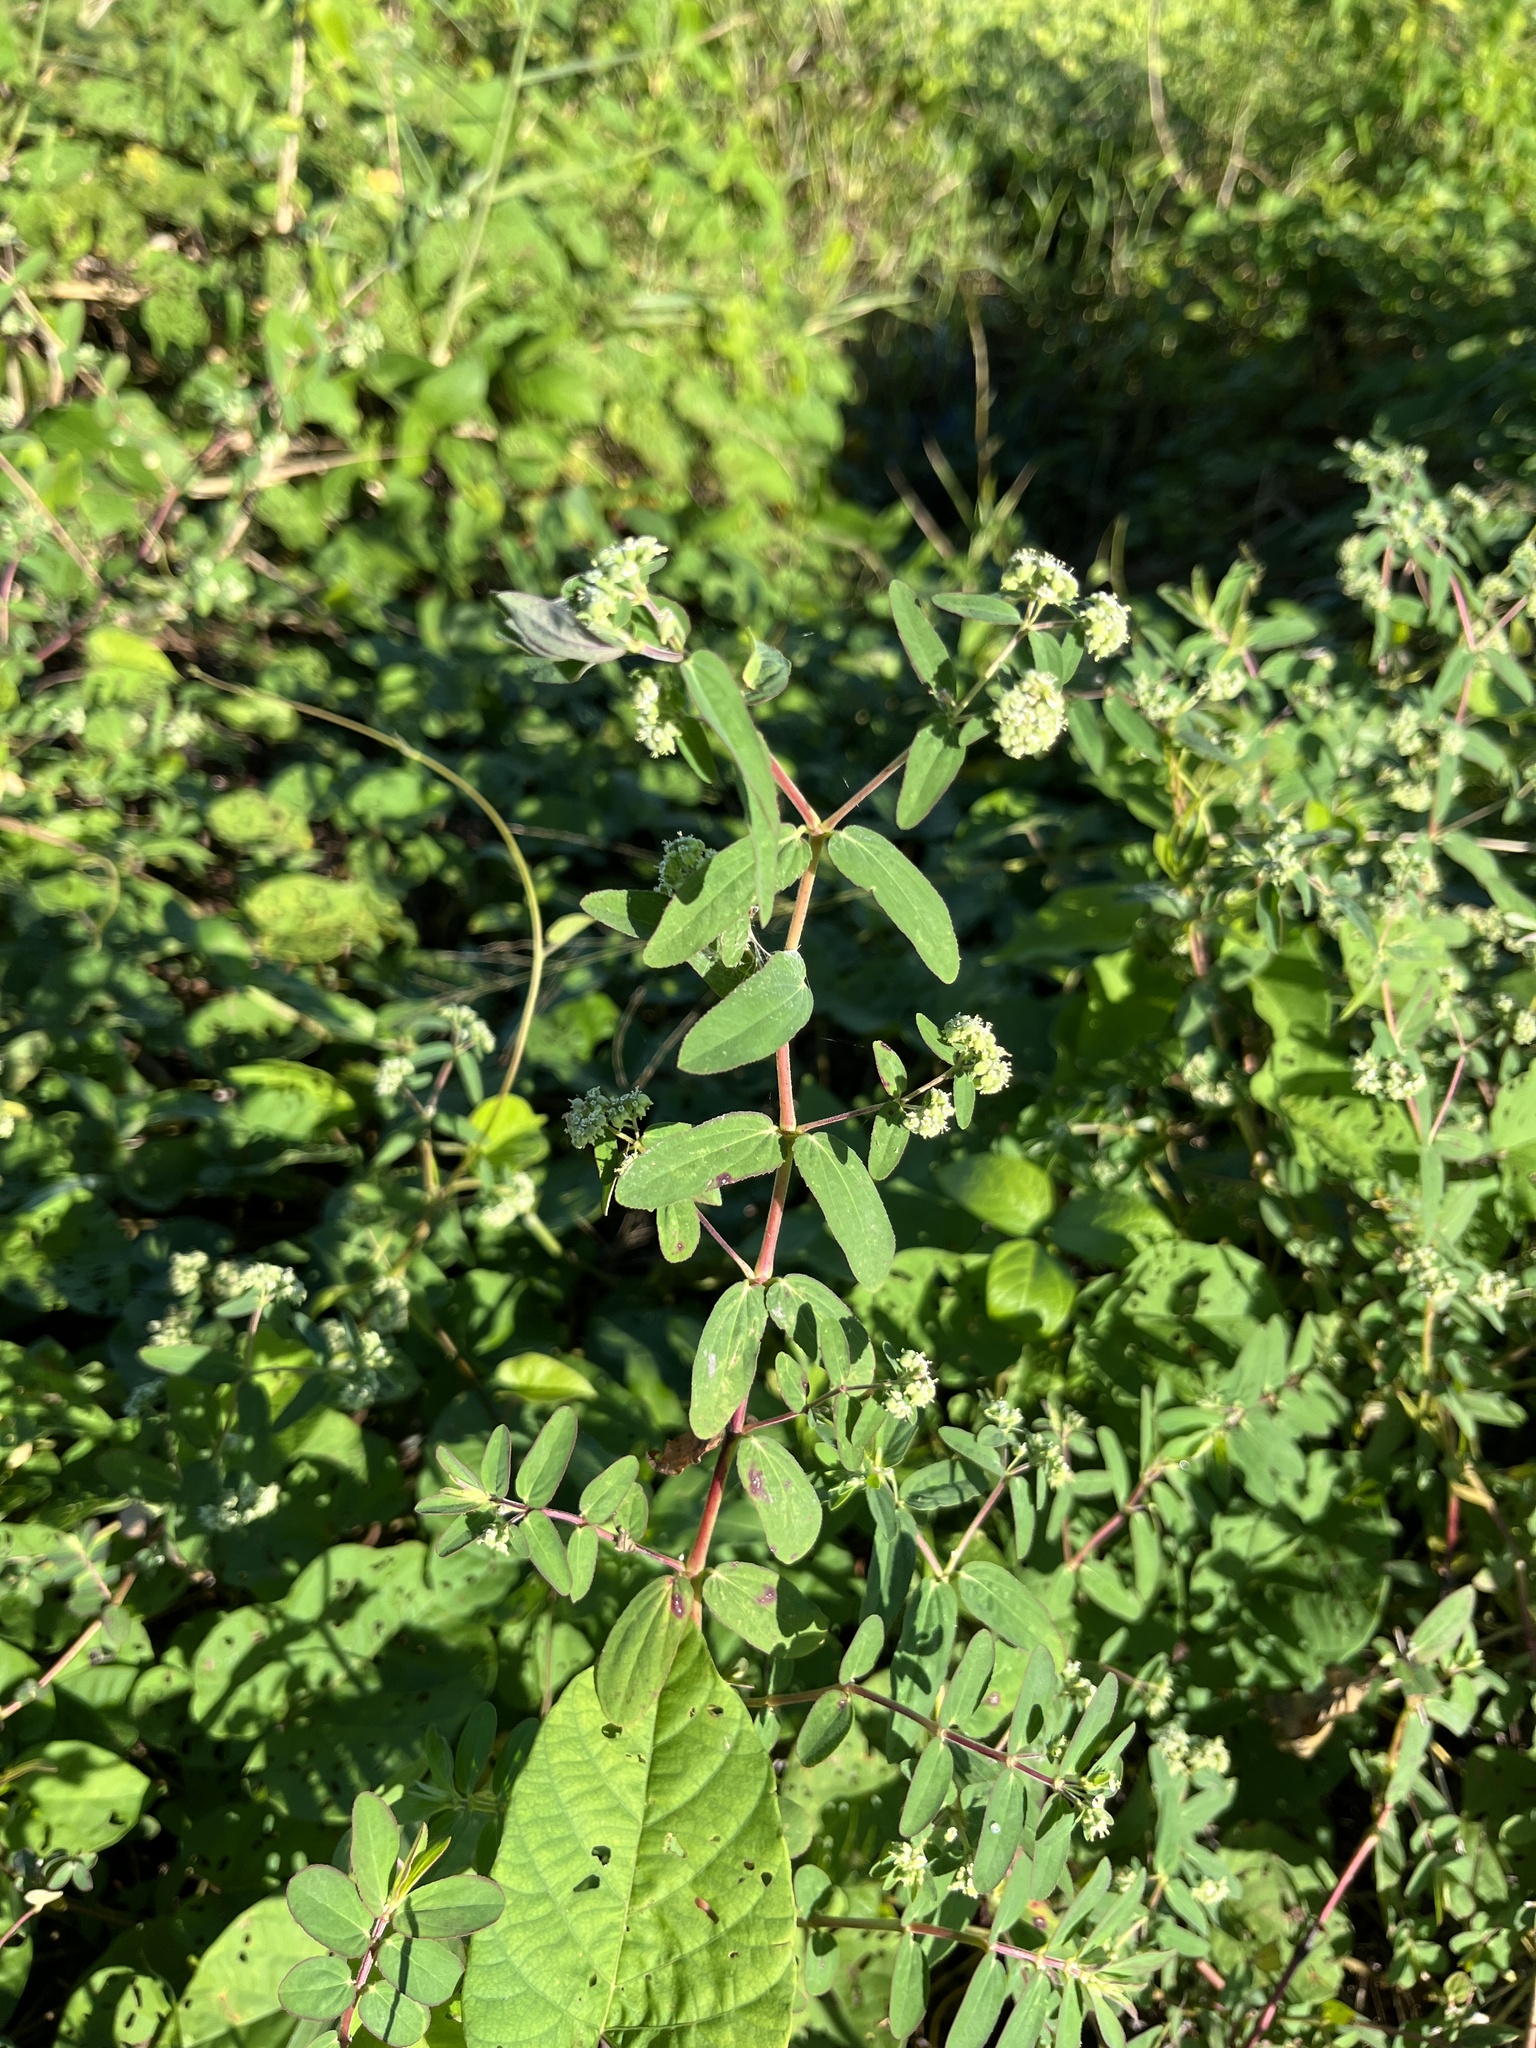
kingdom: Plantae
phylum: Tracheophyta
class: Magnoliopsida
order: Malpighiales
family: Euphorbiaceae
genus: Euphorbia
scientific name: Euphorbia lasiocarpa
